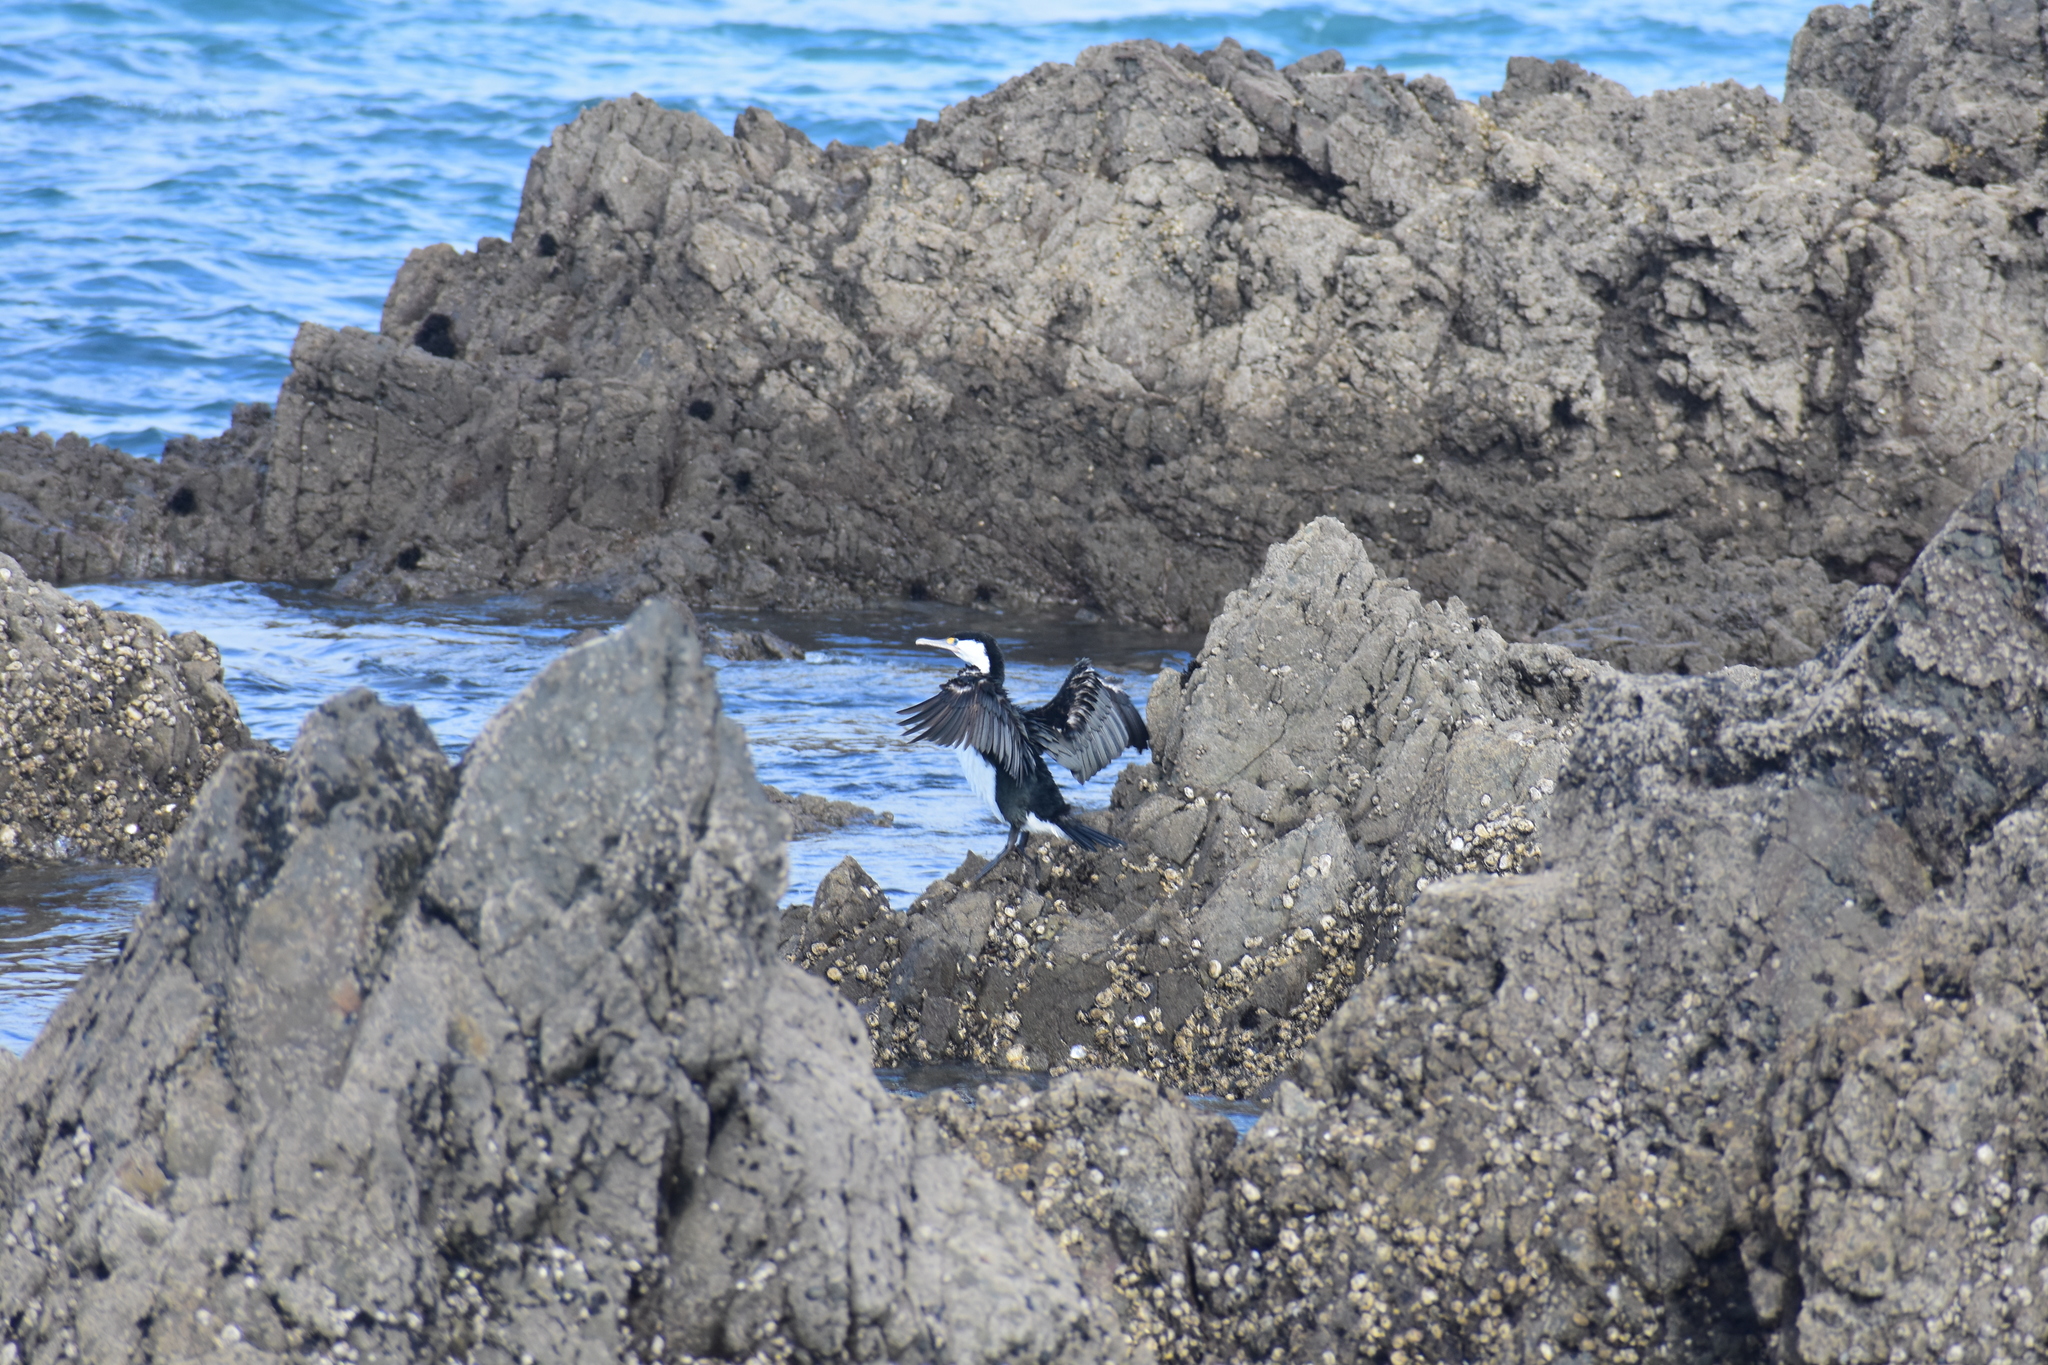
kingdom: Animalia
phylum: Chordata
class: Aves
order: Suliformes
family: Phalacrocoracidae
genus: Phalacrocorax
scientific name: Phalacrocorax varius
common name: Pied cormorant
